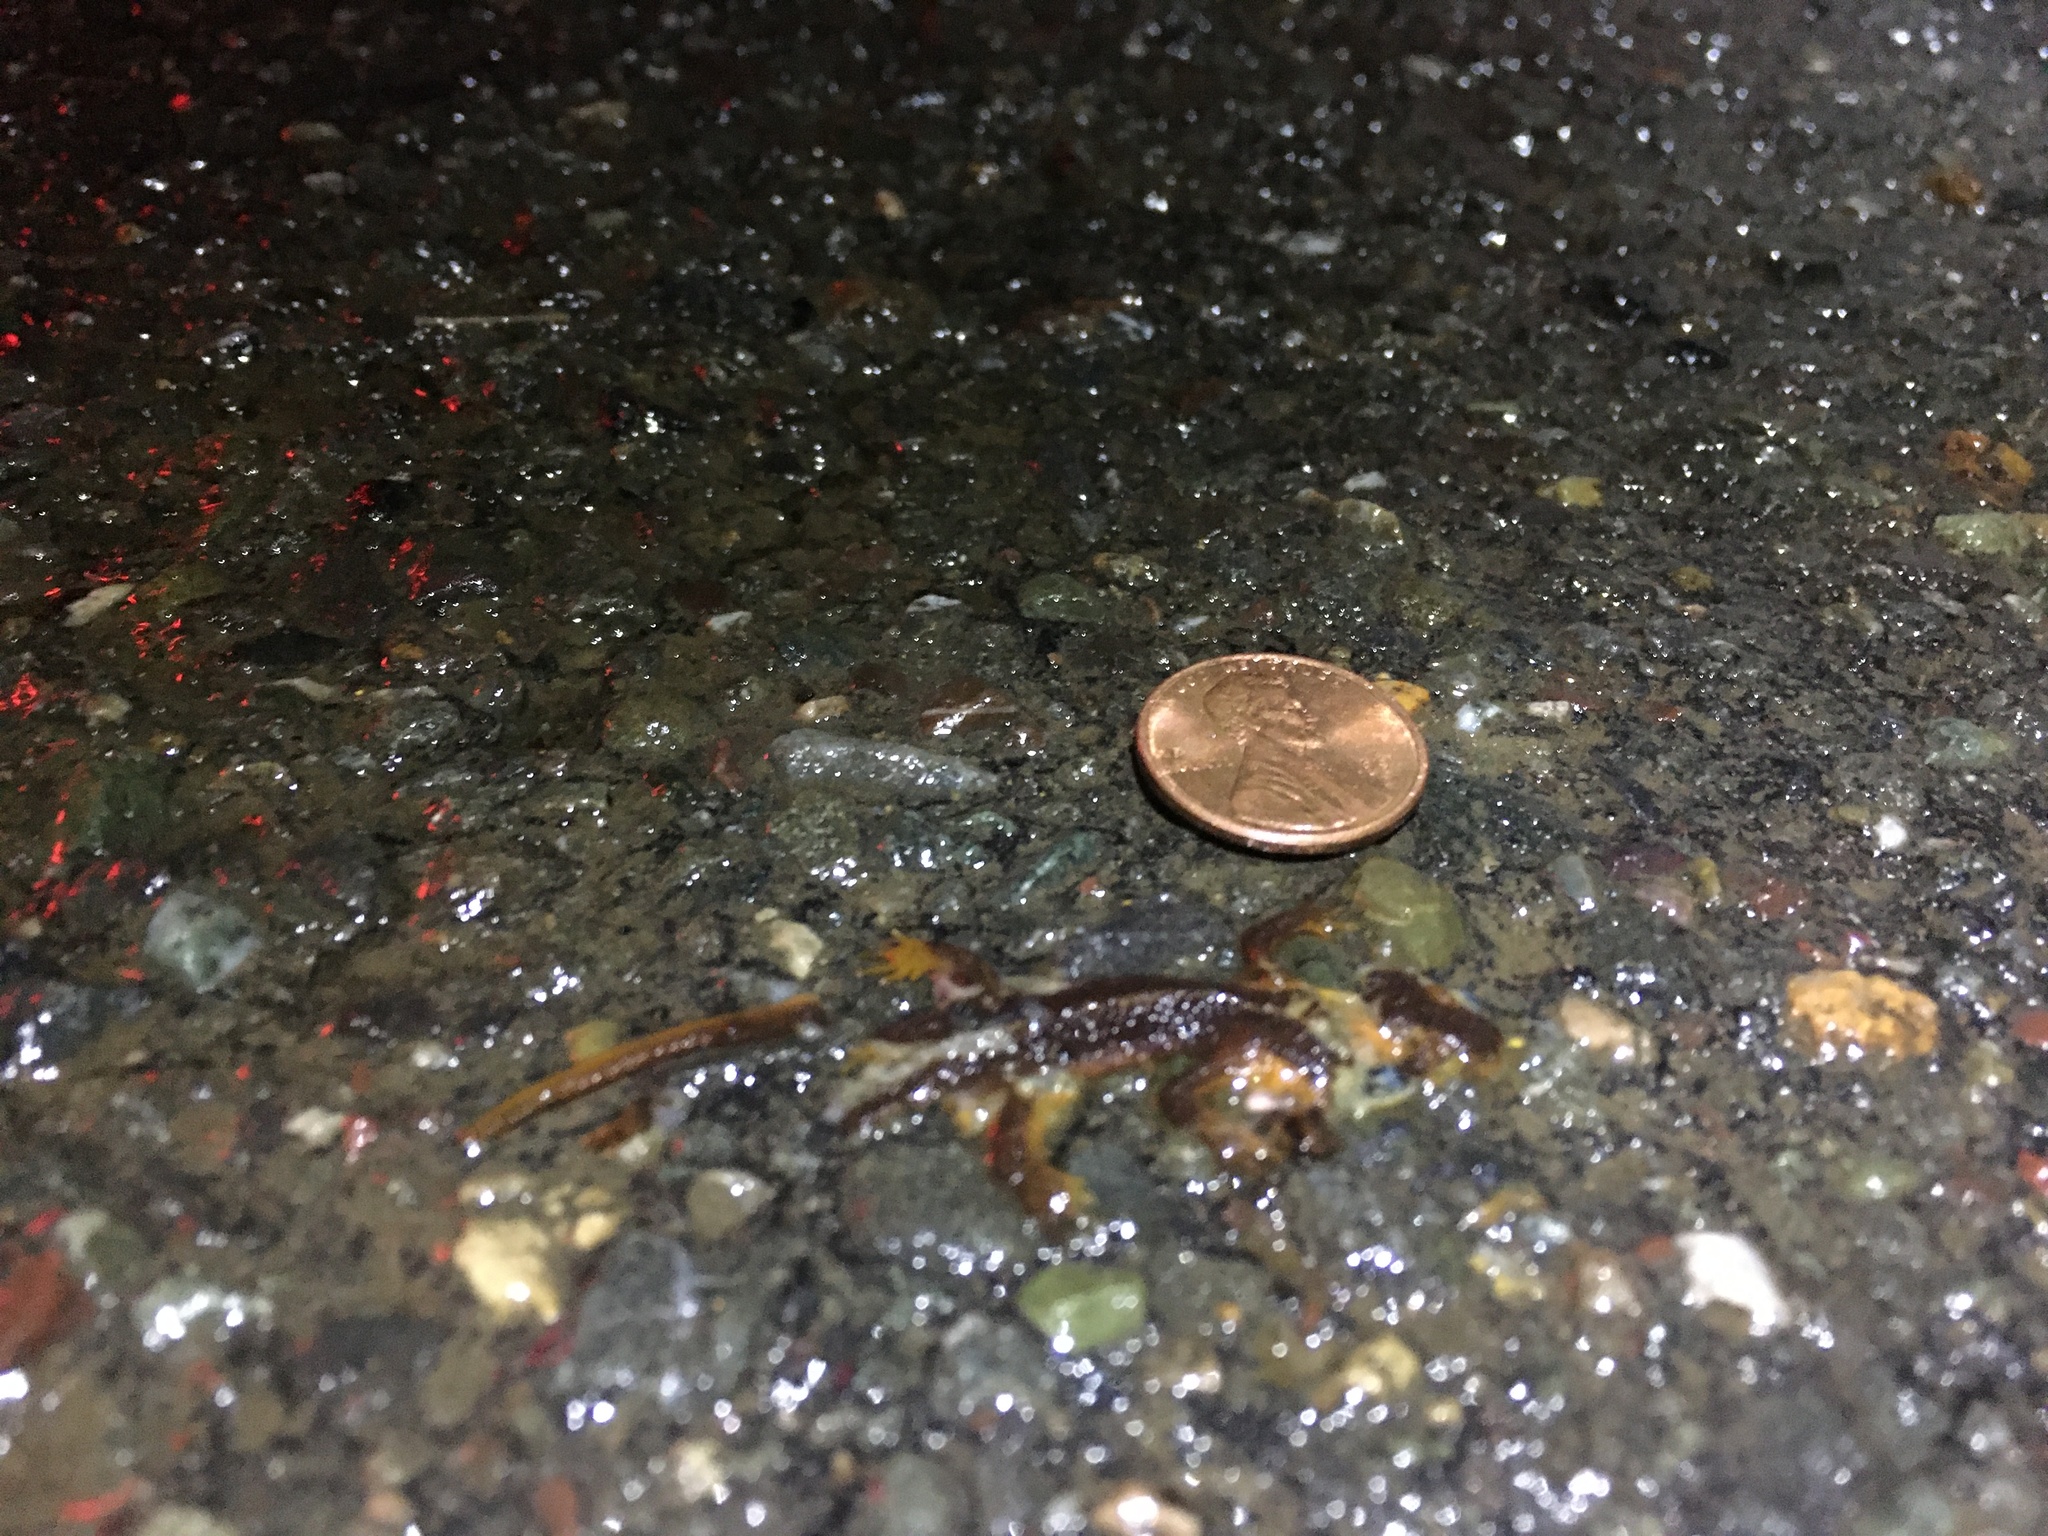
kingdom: Animalia
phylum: Chordata
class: Amphibia
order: Caudata
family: Salamandridae
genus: Taricha
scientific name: Taricha
